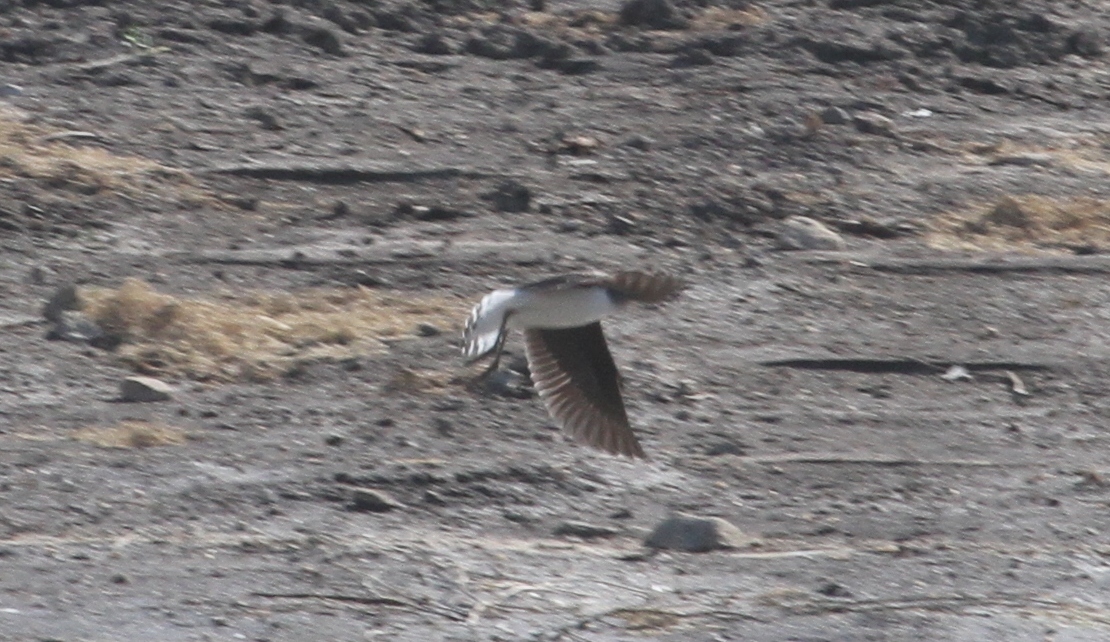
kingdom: Animalia
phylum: Chordata
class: Aves
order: Charadriiformes
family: Scolopacidae
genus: Tringa
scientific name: Tringa ochropus
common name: Green sandpiper
